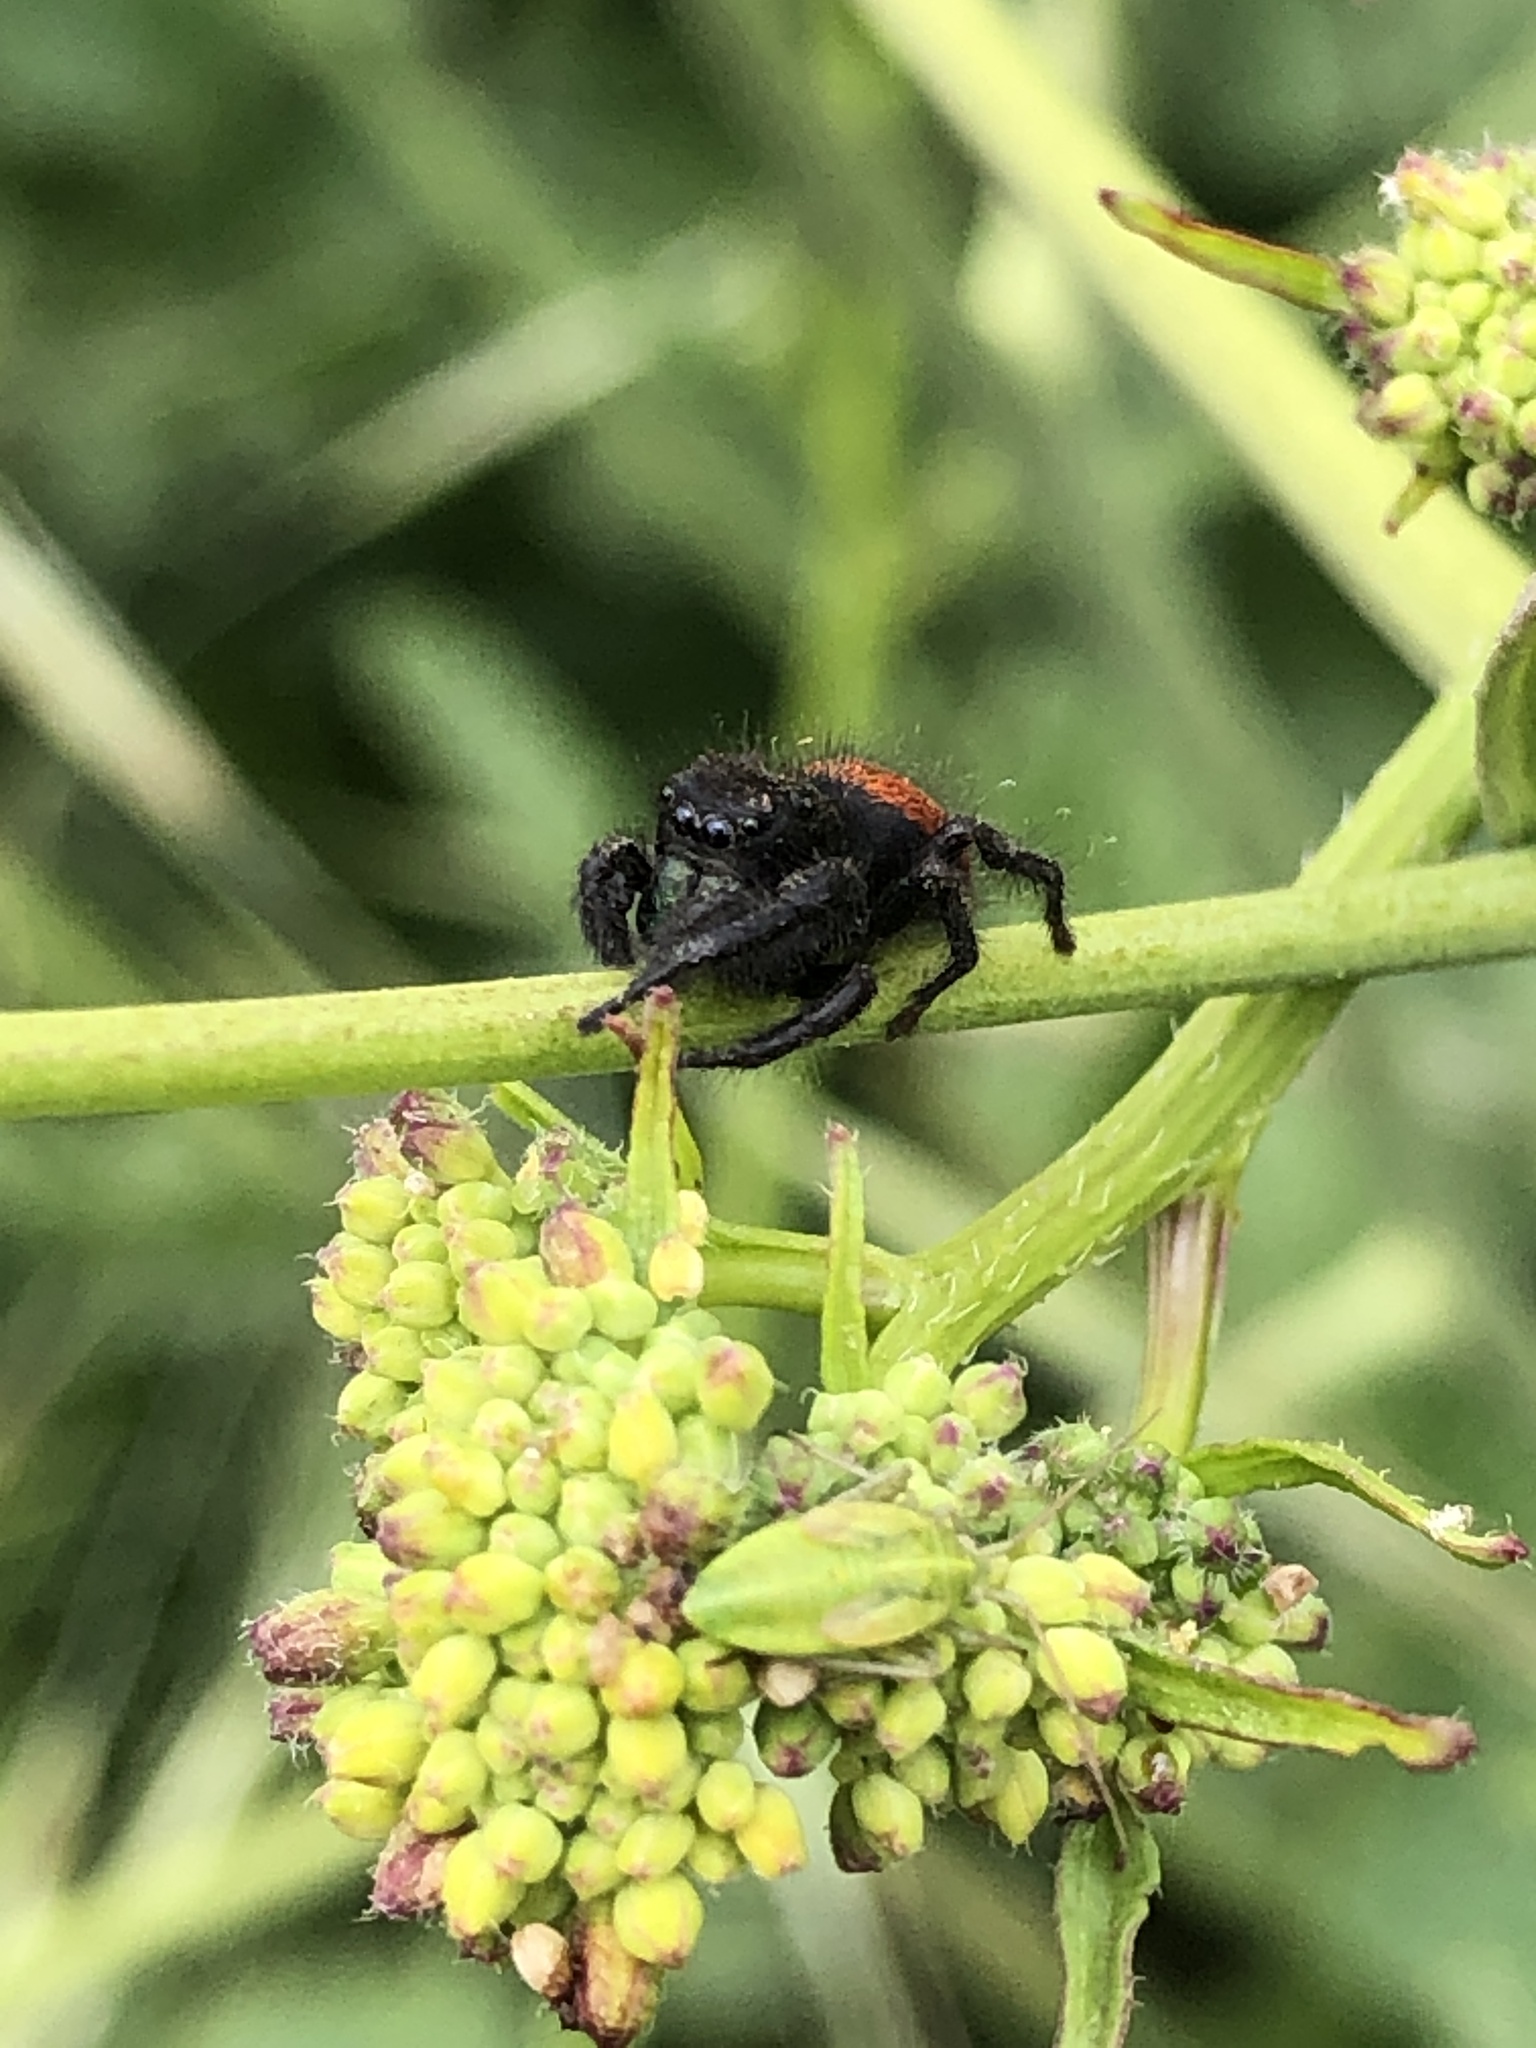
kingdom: Animalia
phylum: Arthropoda
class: Arachnida
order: Araneae
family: Salticidae
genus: Phidippus
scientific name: Phidippus johnsoni
